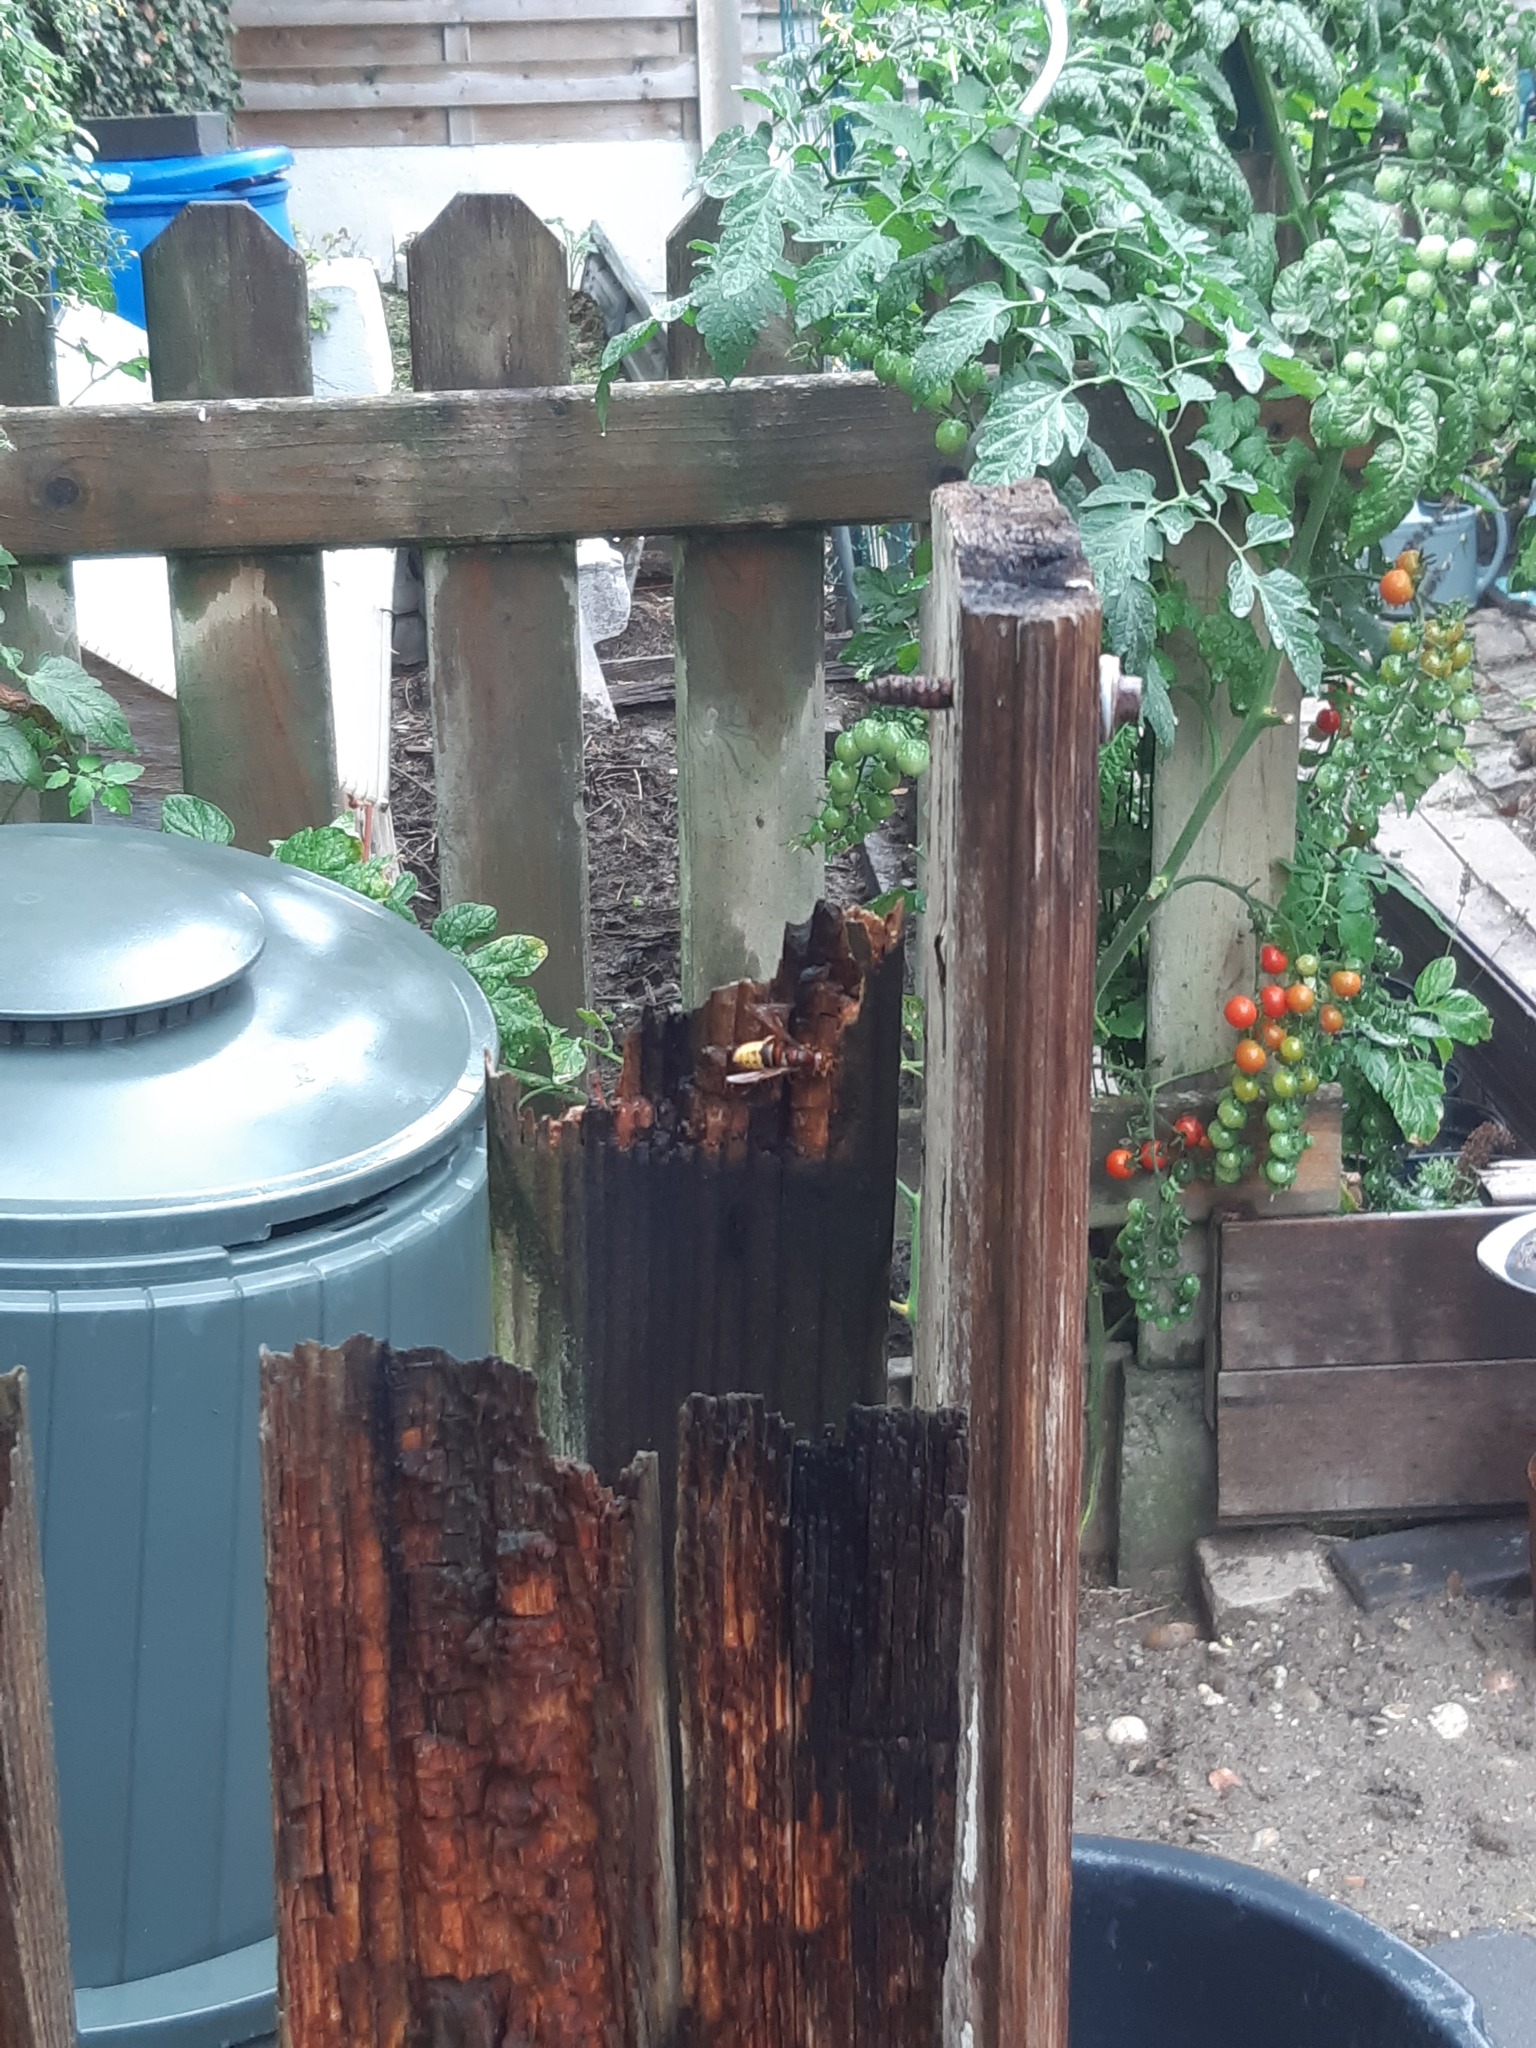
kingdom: Animalia
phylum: Arthropoda
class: Insecta
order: Hymenoptera
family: Vespidae
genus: Vespa
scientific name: Vespa crabro
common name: Hornet
